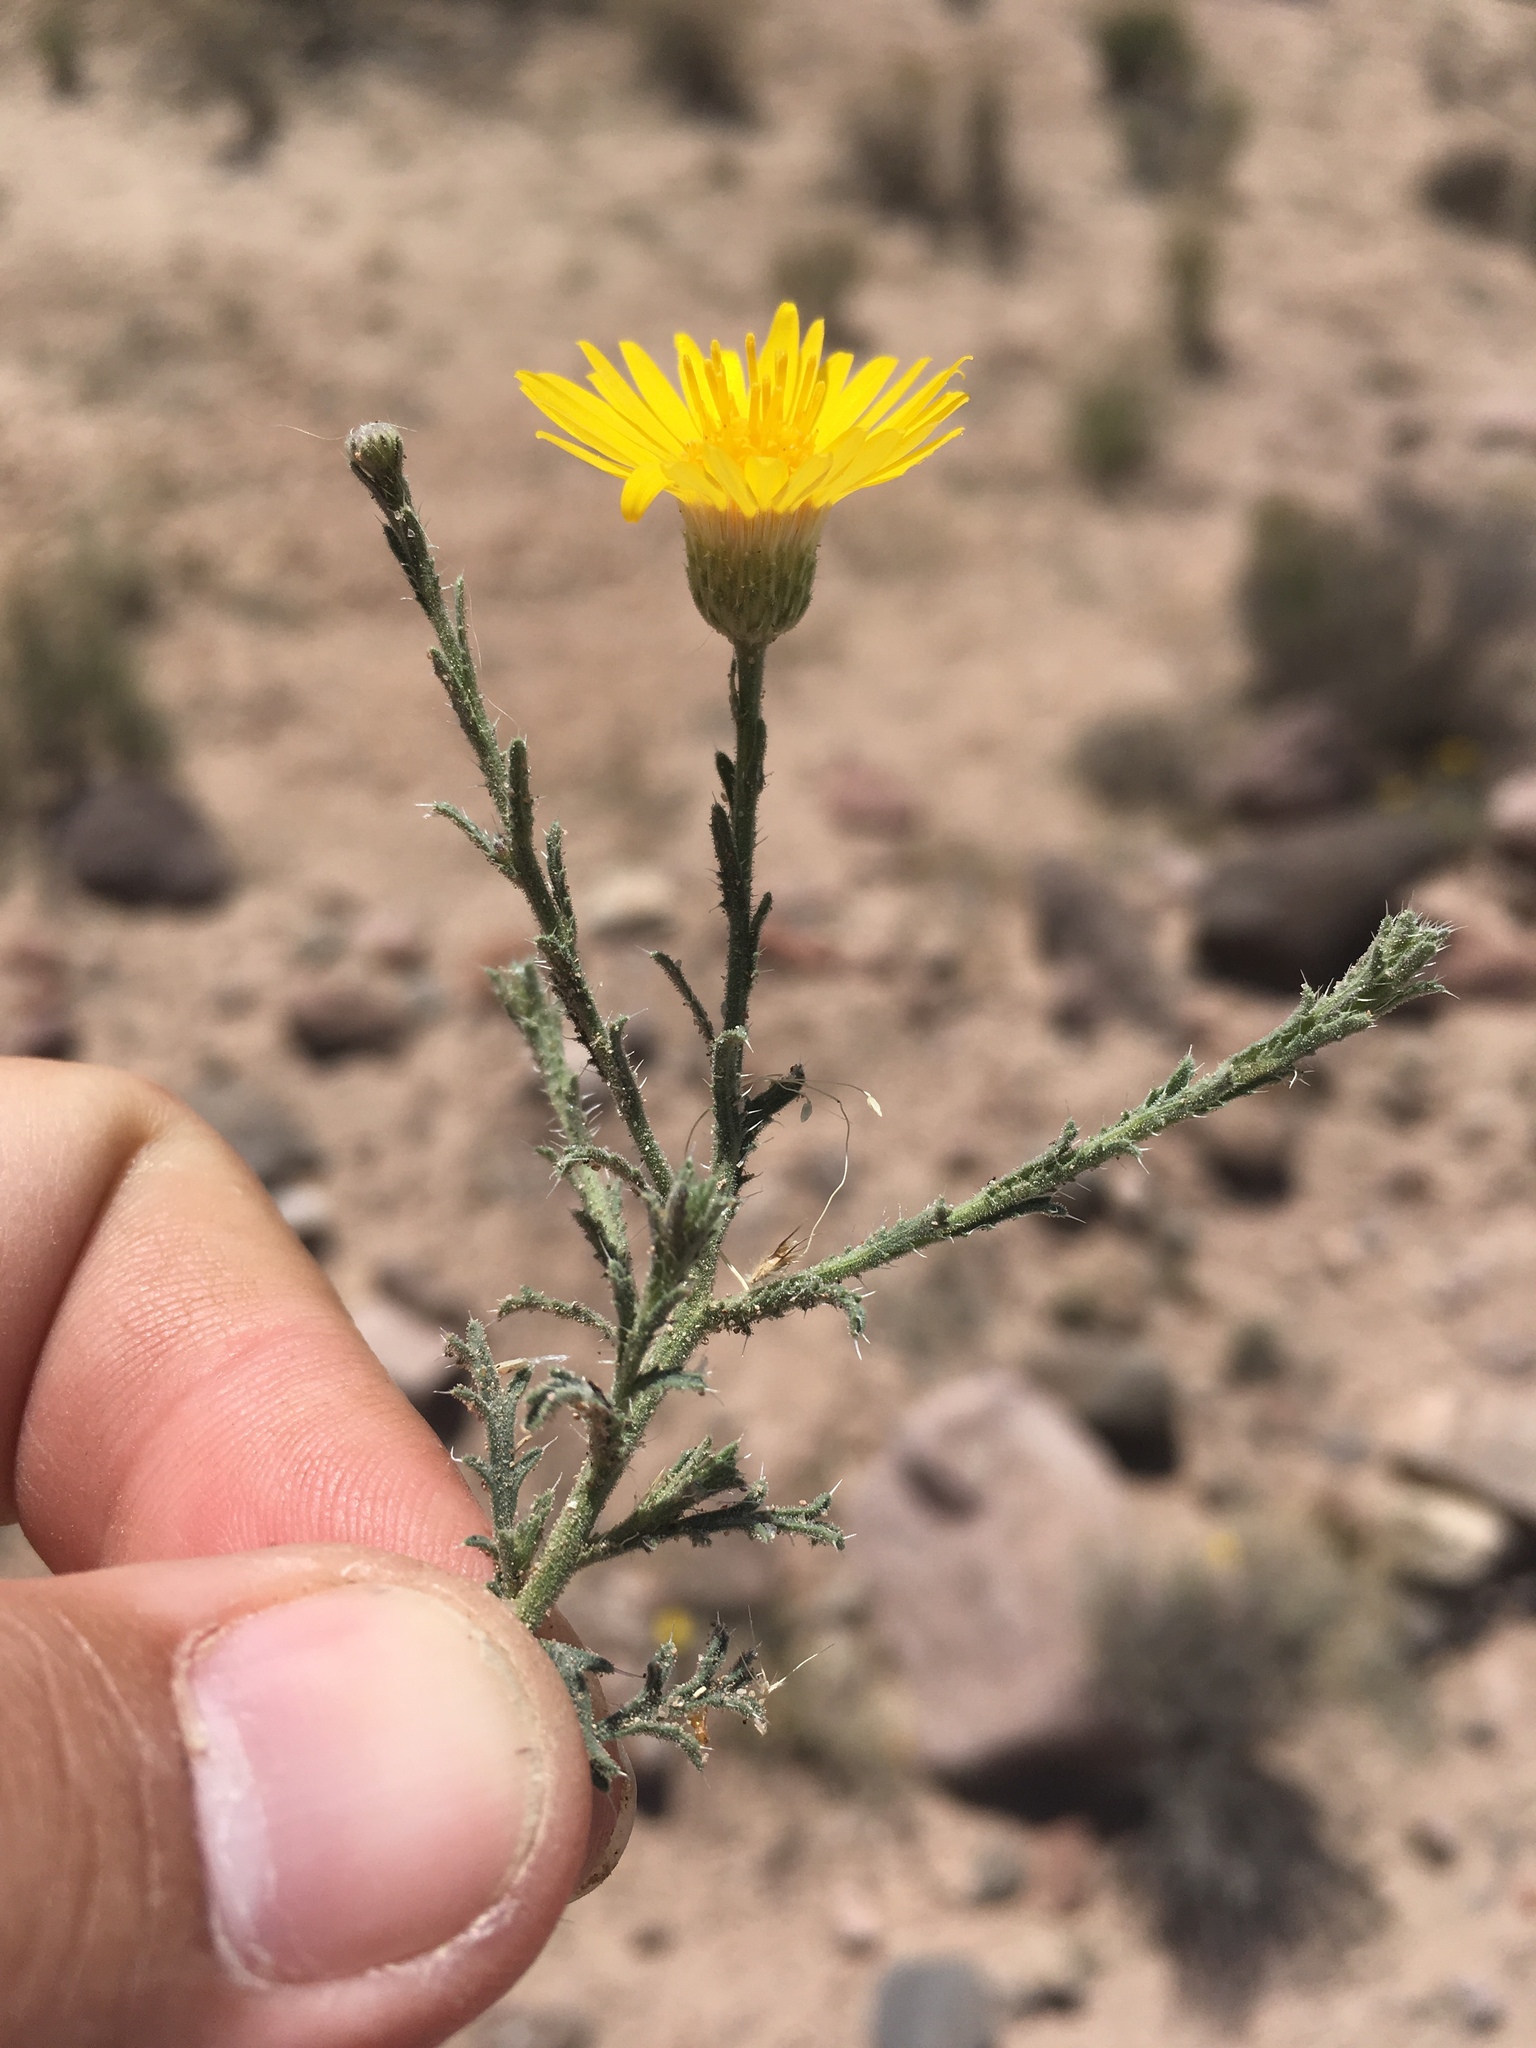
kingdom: Plantae
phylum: Tracheophyta
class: Magnoliopsida
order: Asterales
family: Asteraceae
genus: Xanthisma
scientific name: Xanthisma spinulosum
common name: Spiny goldenweed
